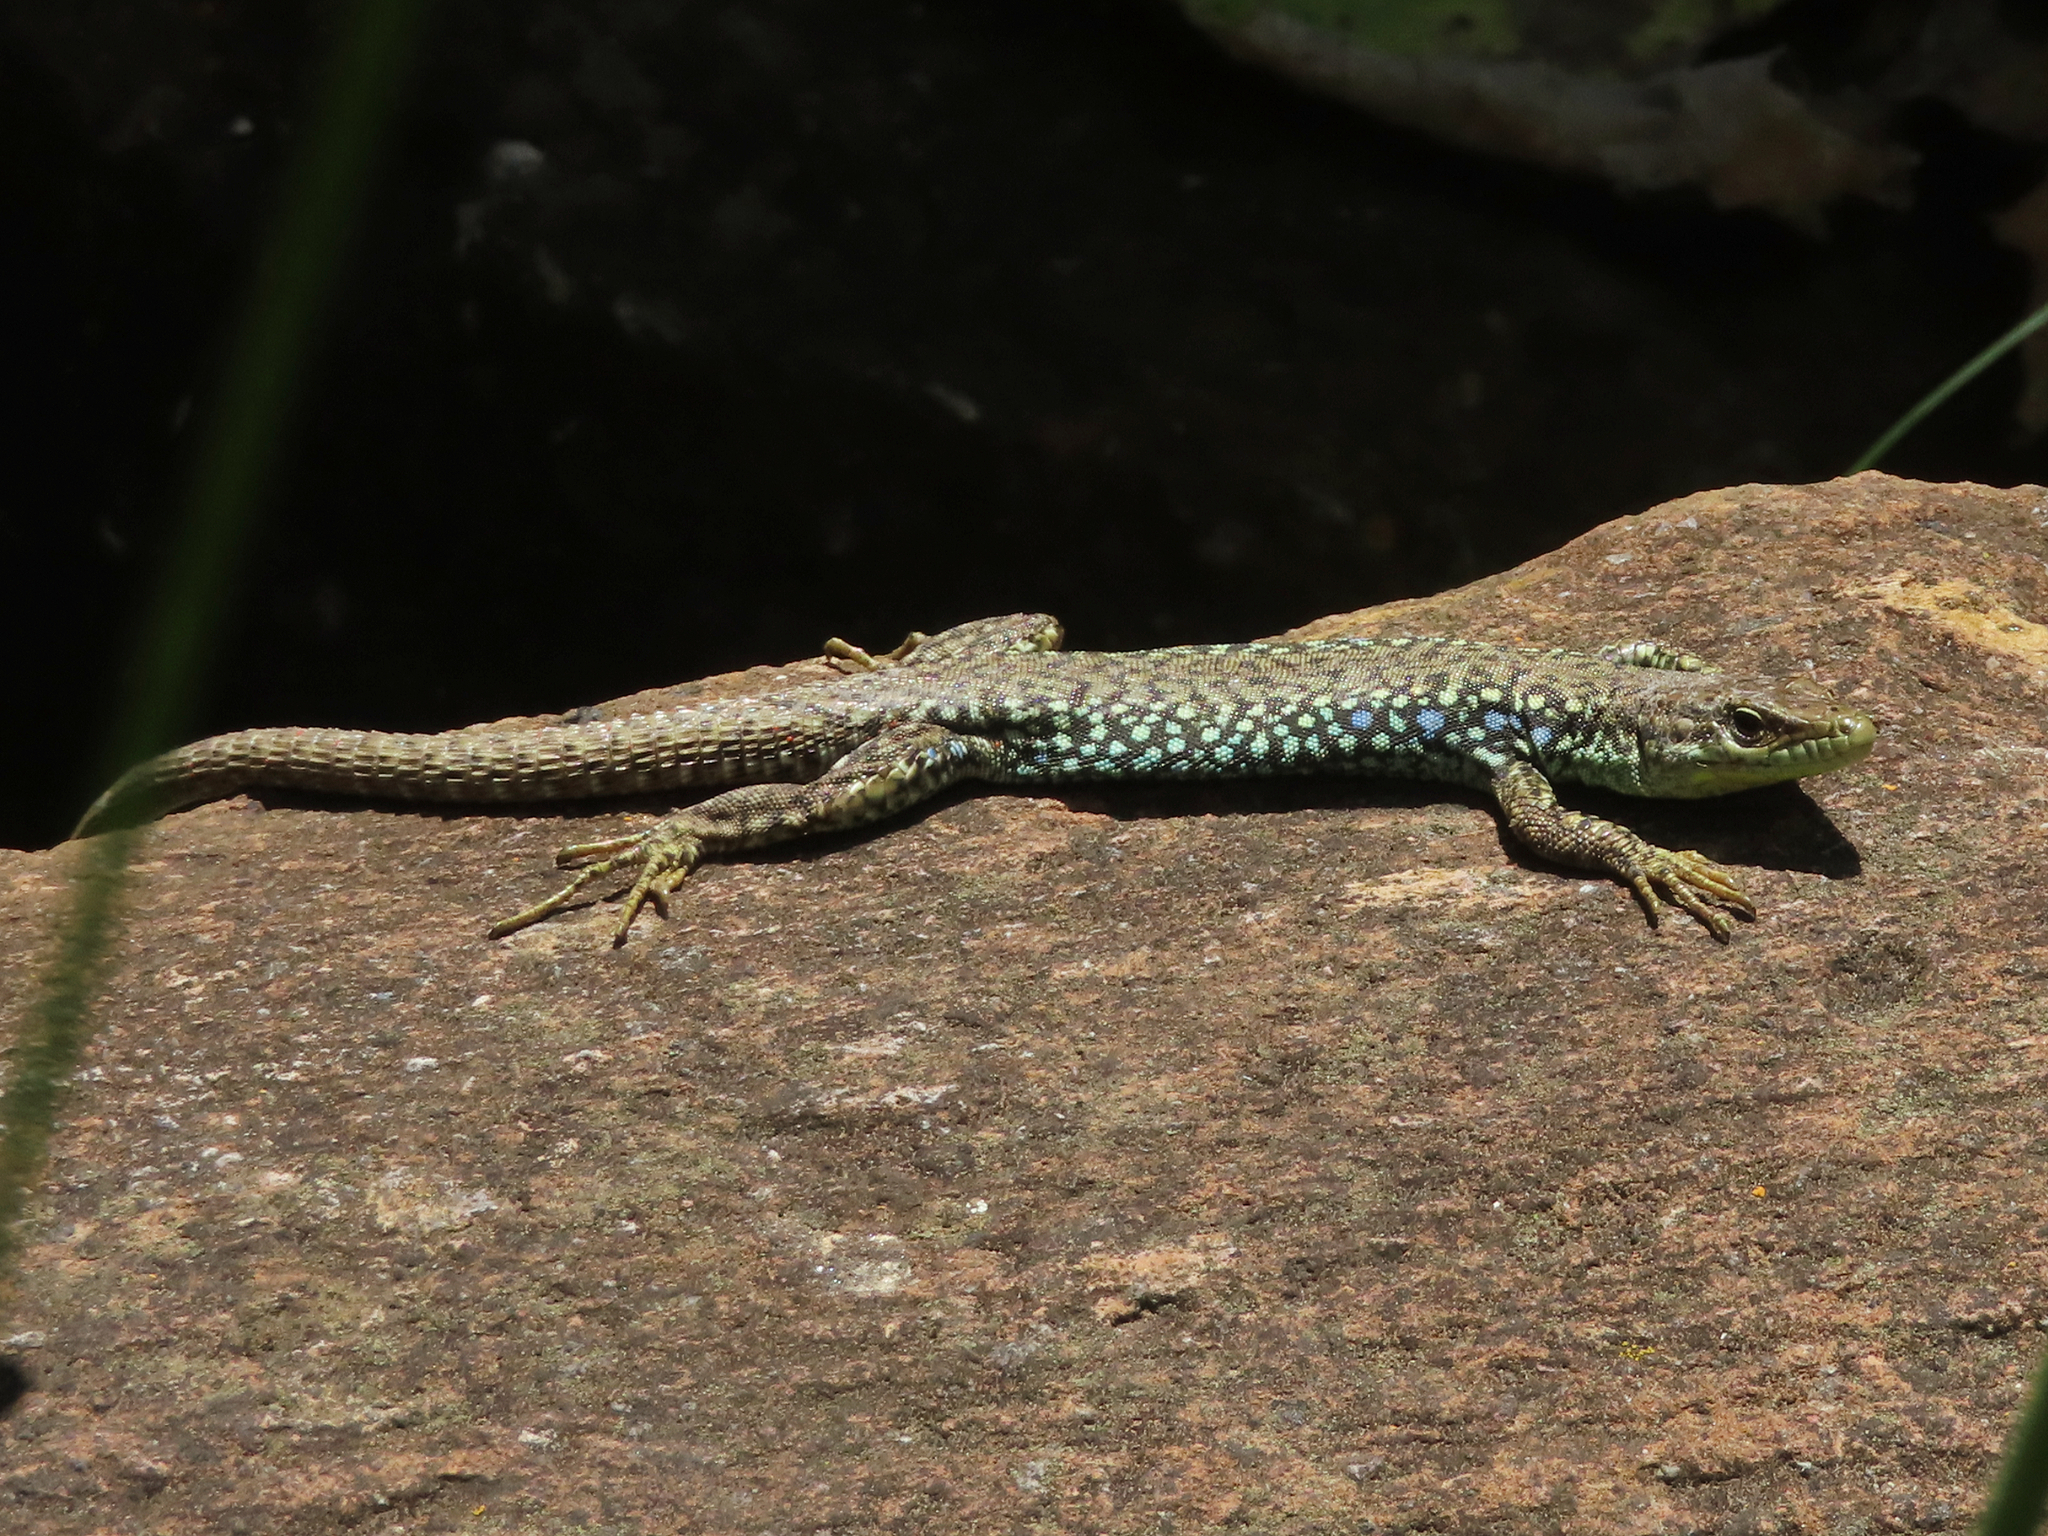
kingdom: Animalia
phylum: Chordata
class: Squamata
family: Lacertidae
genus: Darevskia
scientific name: Darevskia
